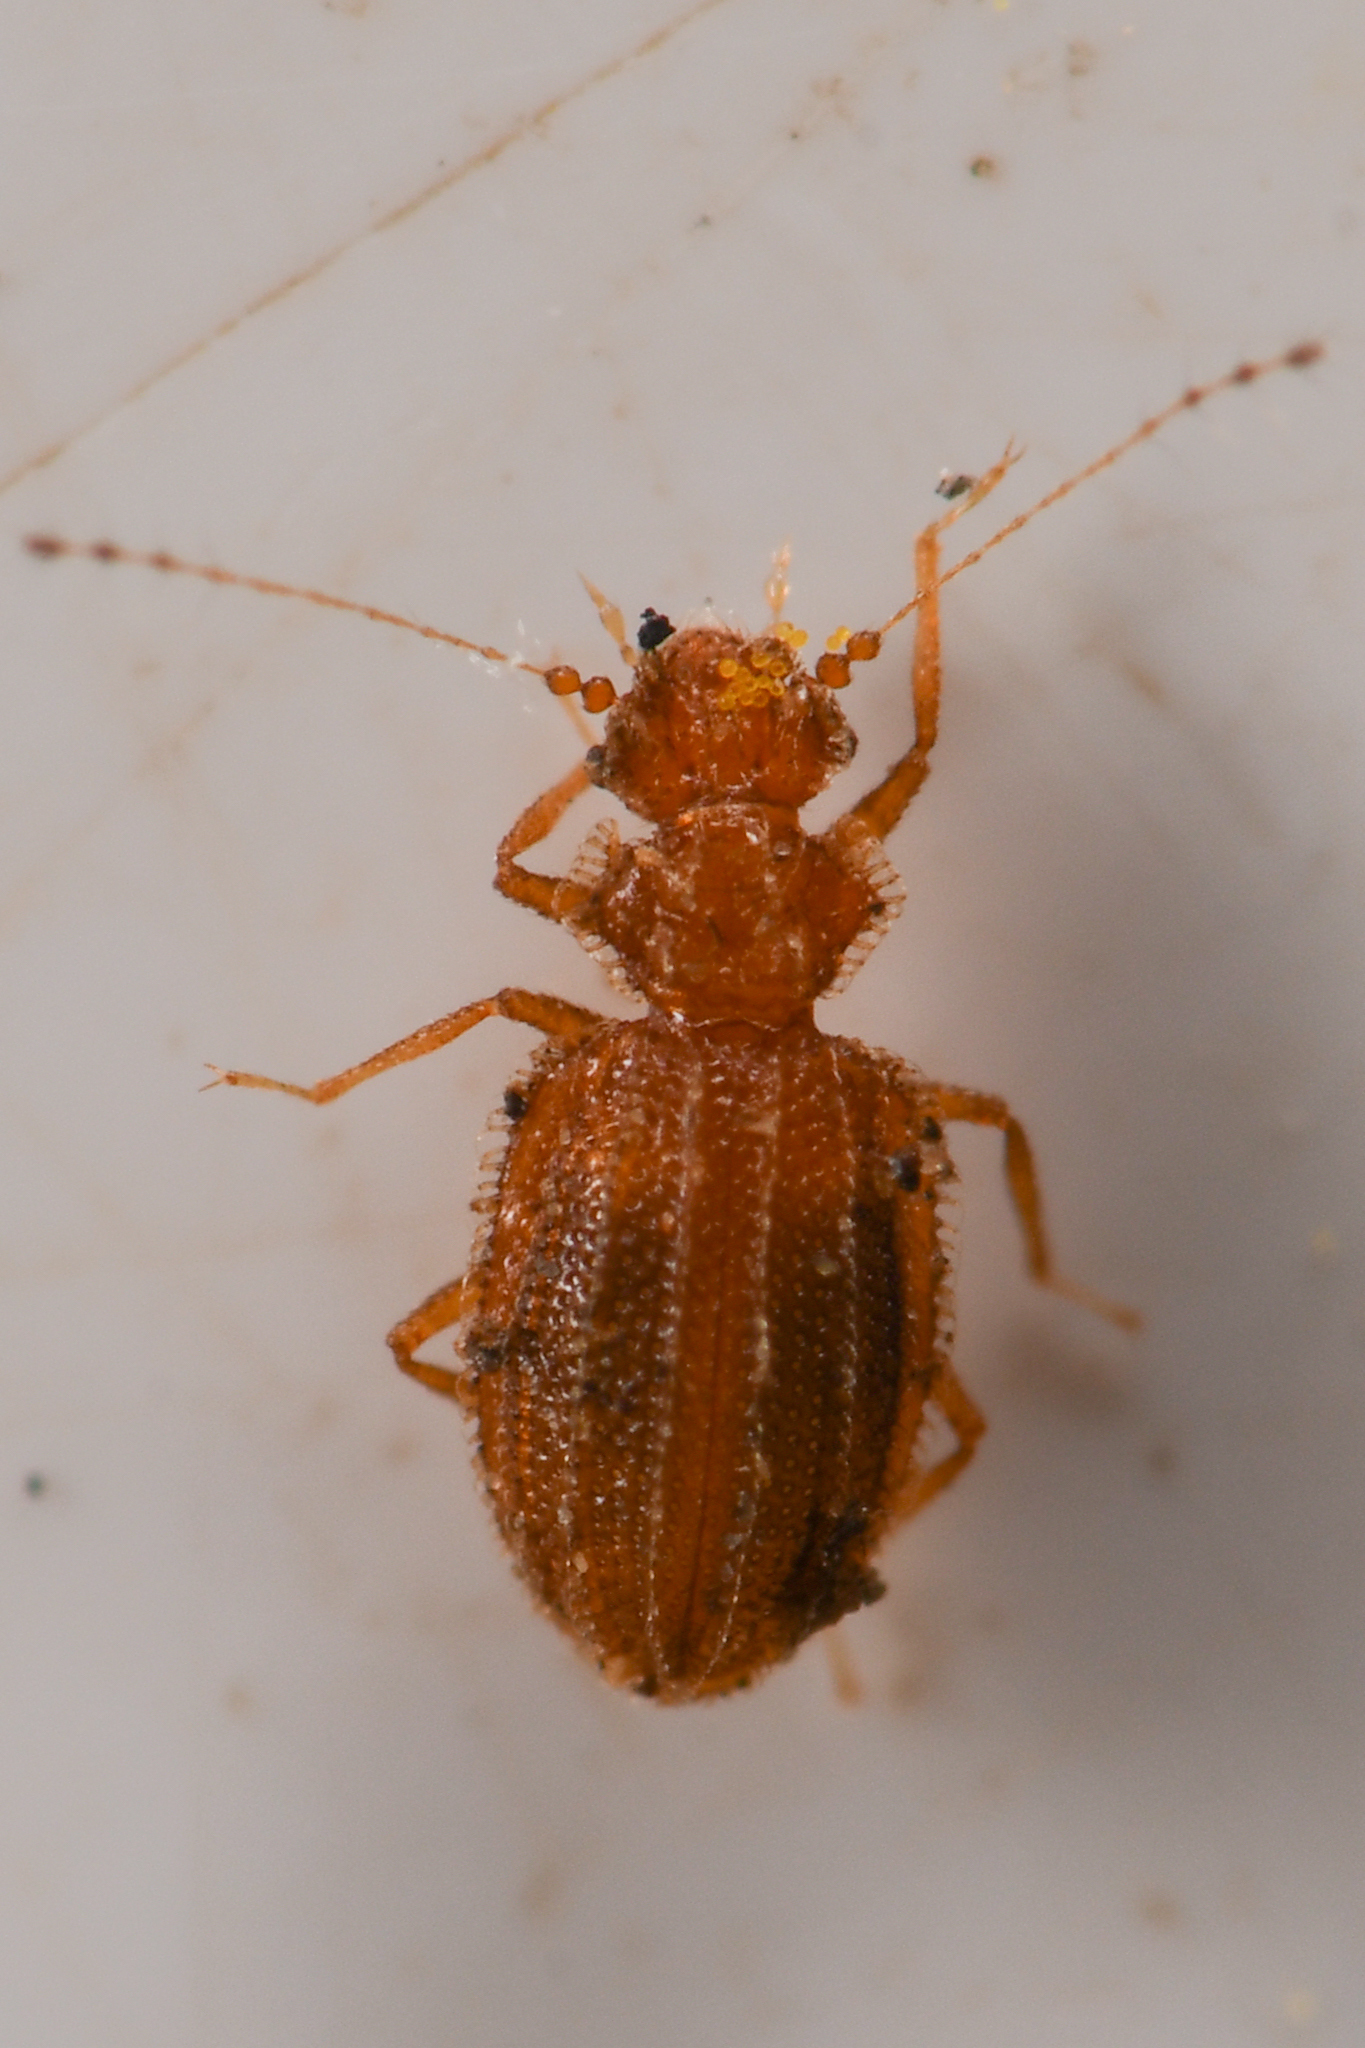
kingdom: Animalia
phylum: Arthropoda
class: Insecta
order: Coleoptera
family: Staphylinidae
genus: Dasycerus
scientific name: Dasycerus angulicollis
